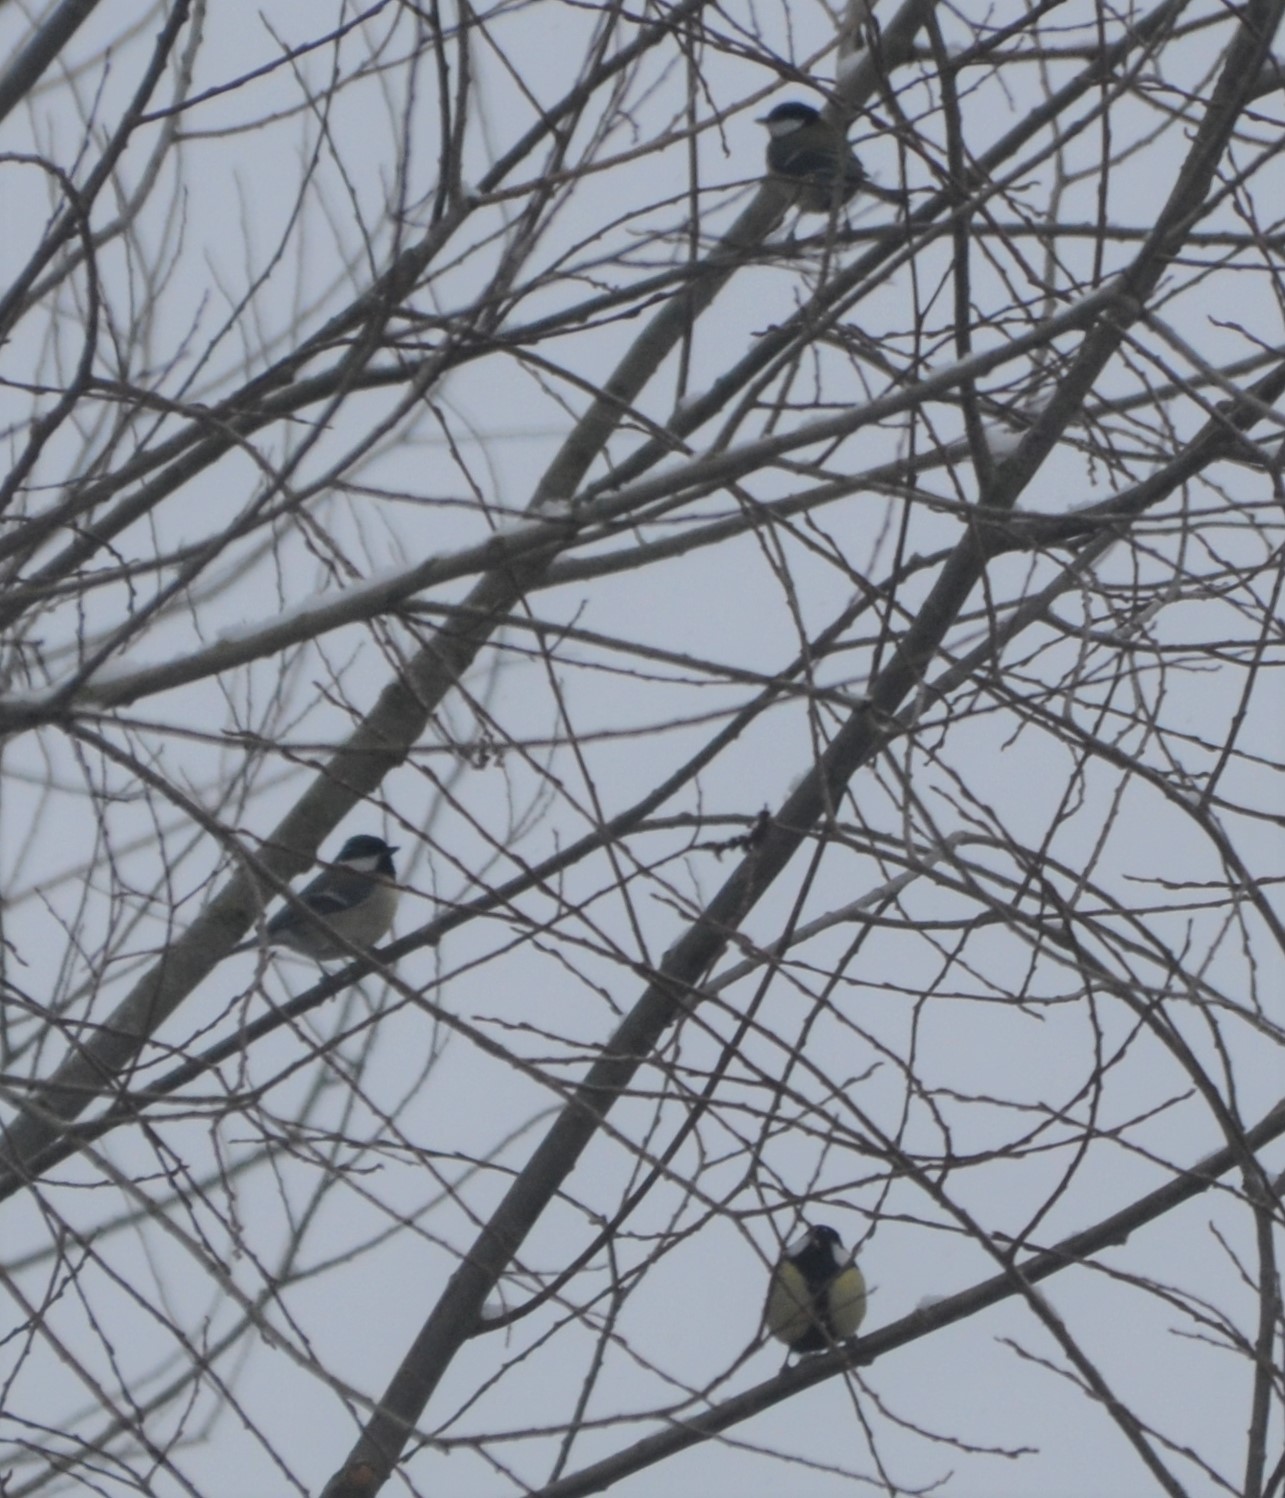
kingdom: Animalia
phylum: Chordata
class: Aves
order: Passeriformes
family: Paridae
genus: Parus
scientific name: Parus major
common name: Great tit
